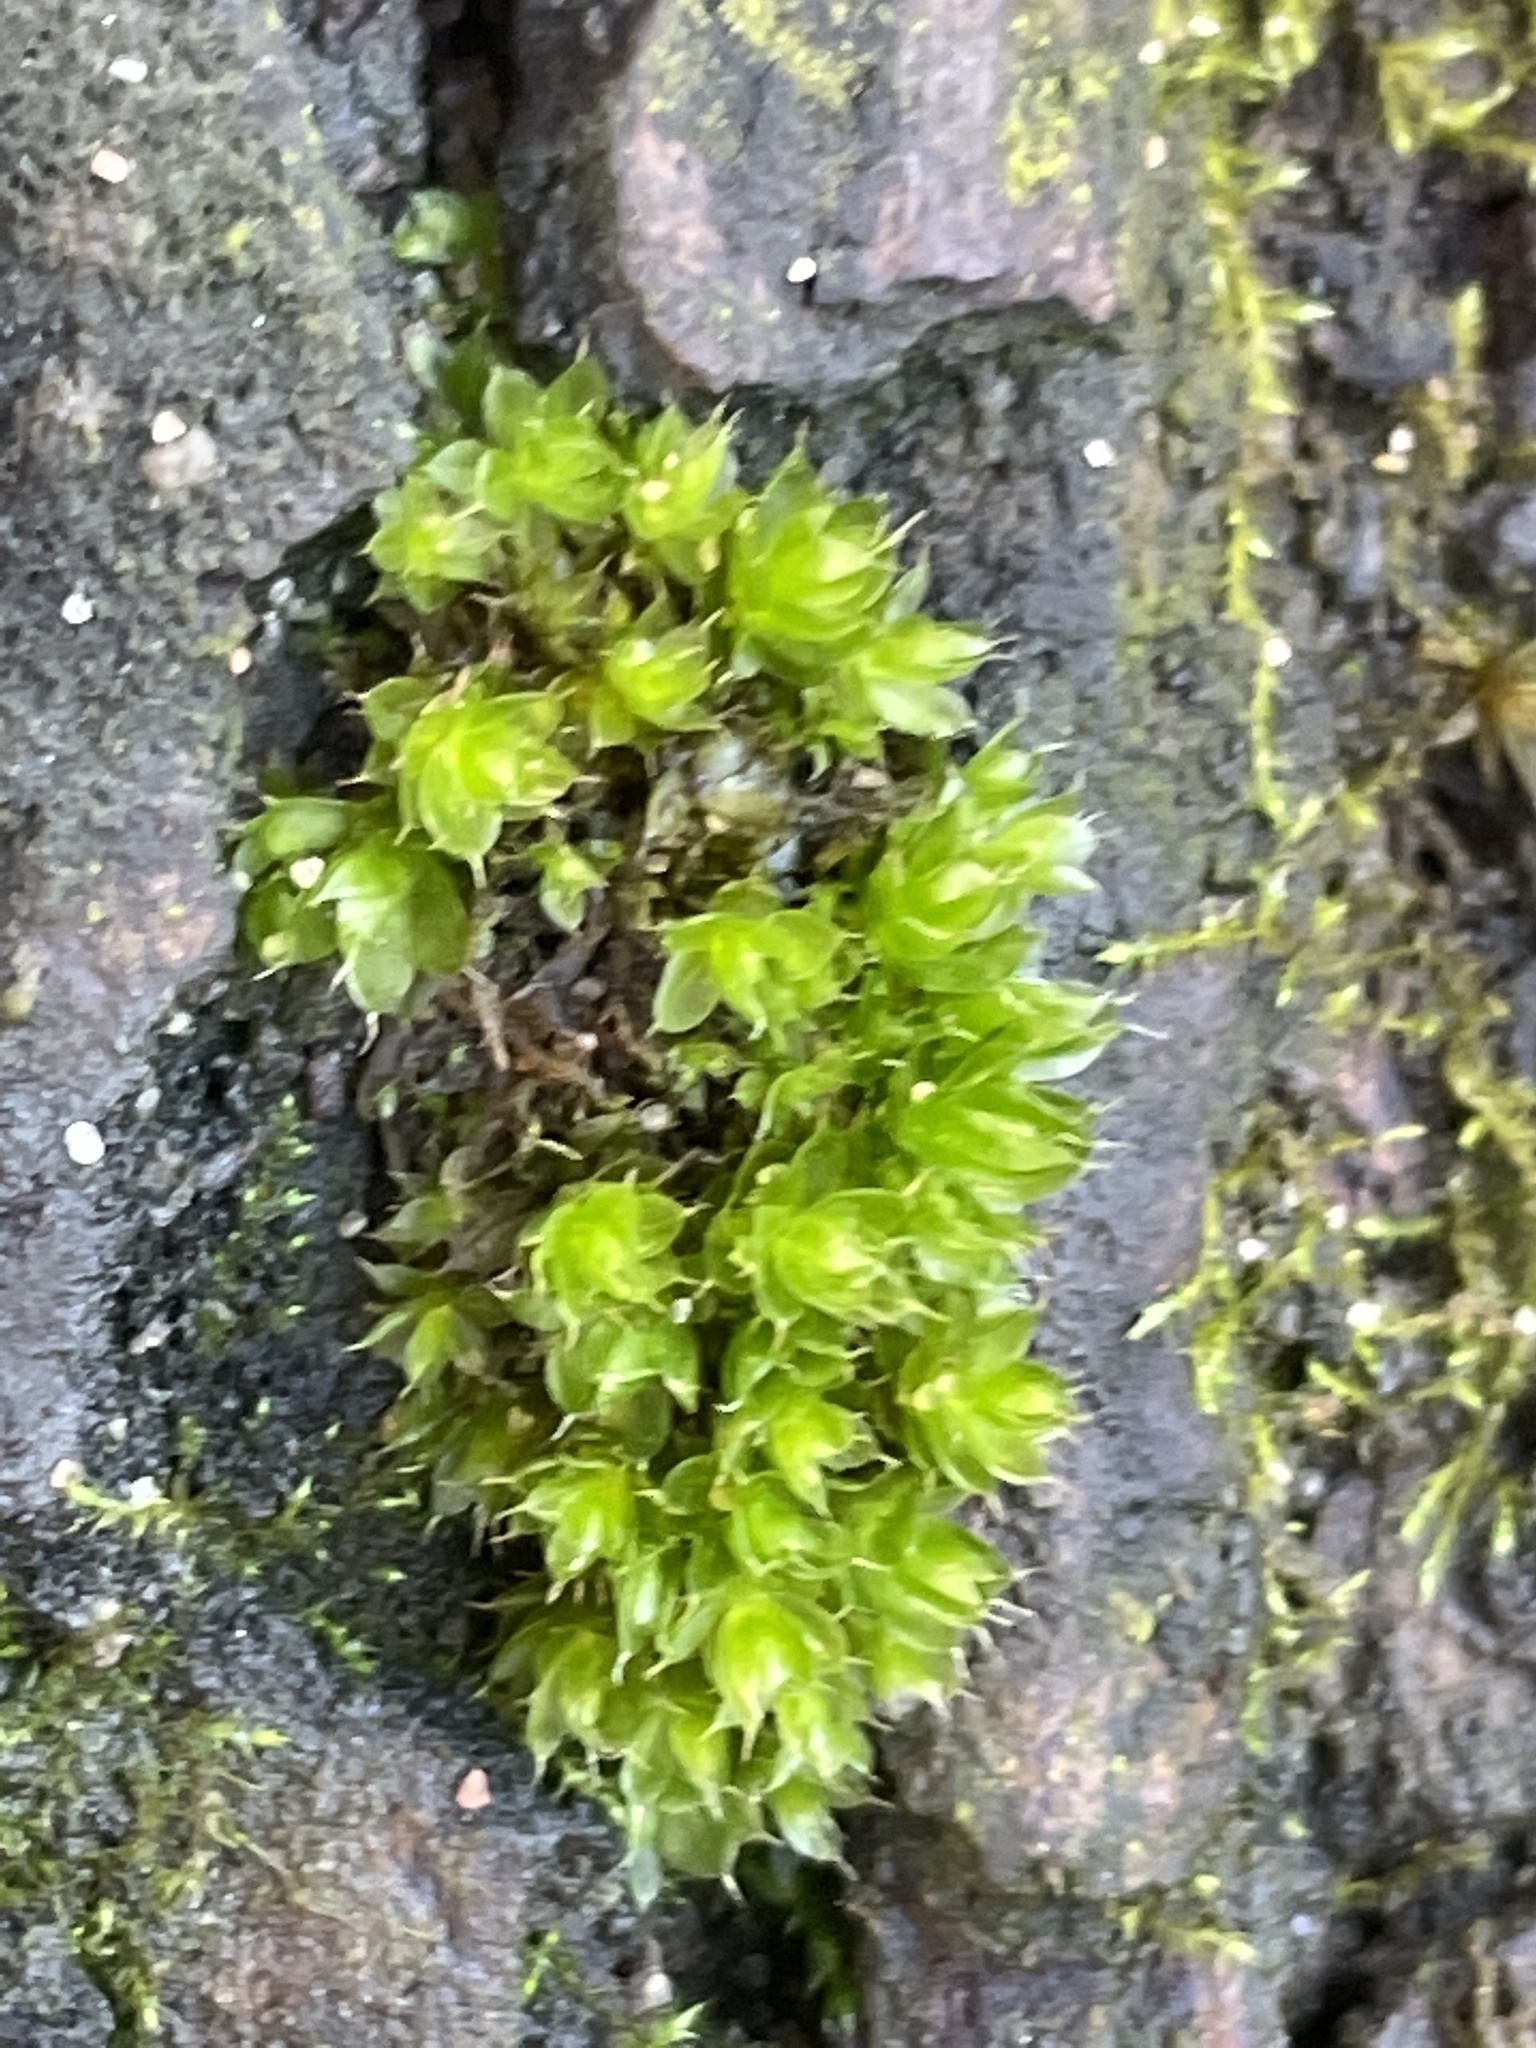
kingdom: Plantae
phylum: Bryophyta
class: Bryopsida
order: Bryales
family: Bryaceae
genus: Rosulabryum
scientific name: Rosulabryum capillare
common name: Capillary thread-moss
